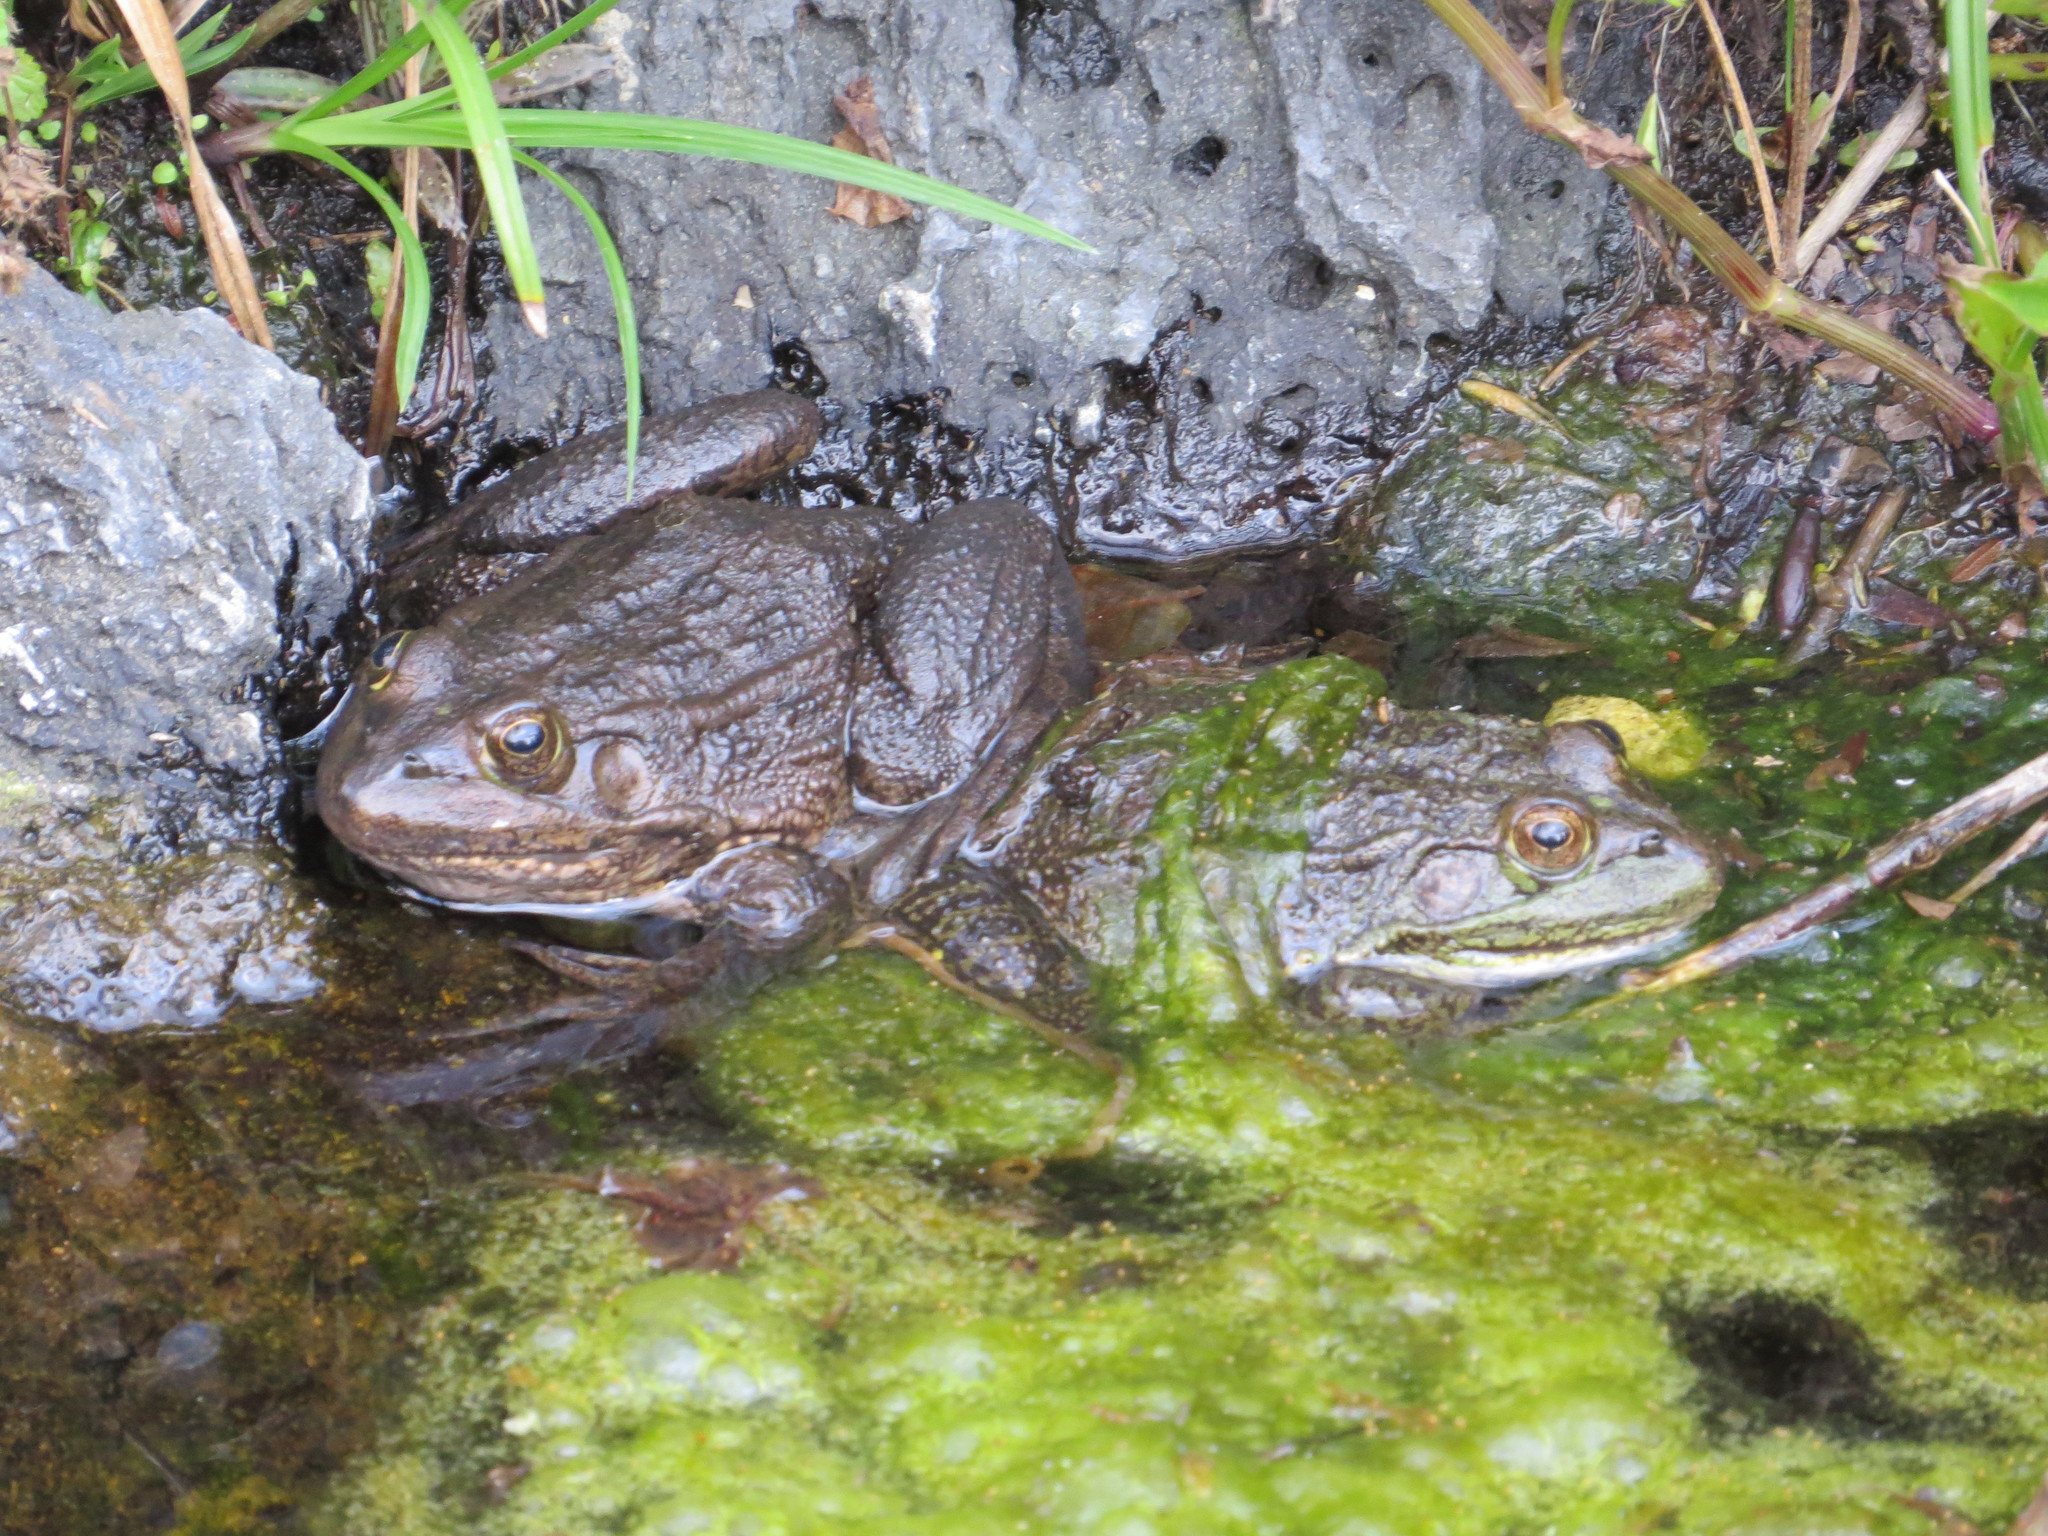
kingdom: Animalia
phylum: Chordata
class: Amphibia
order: Anura
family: Ranidae
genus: Lithobates
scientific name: Lithobates montezumae
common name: Montezuma leopard frog
